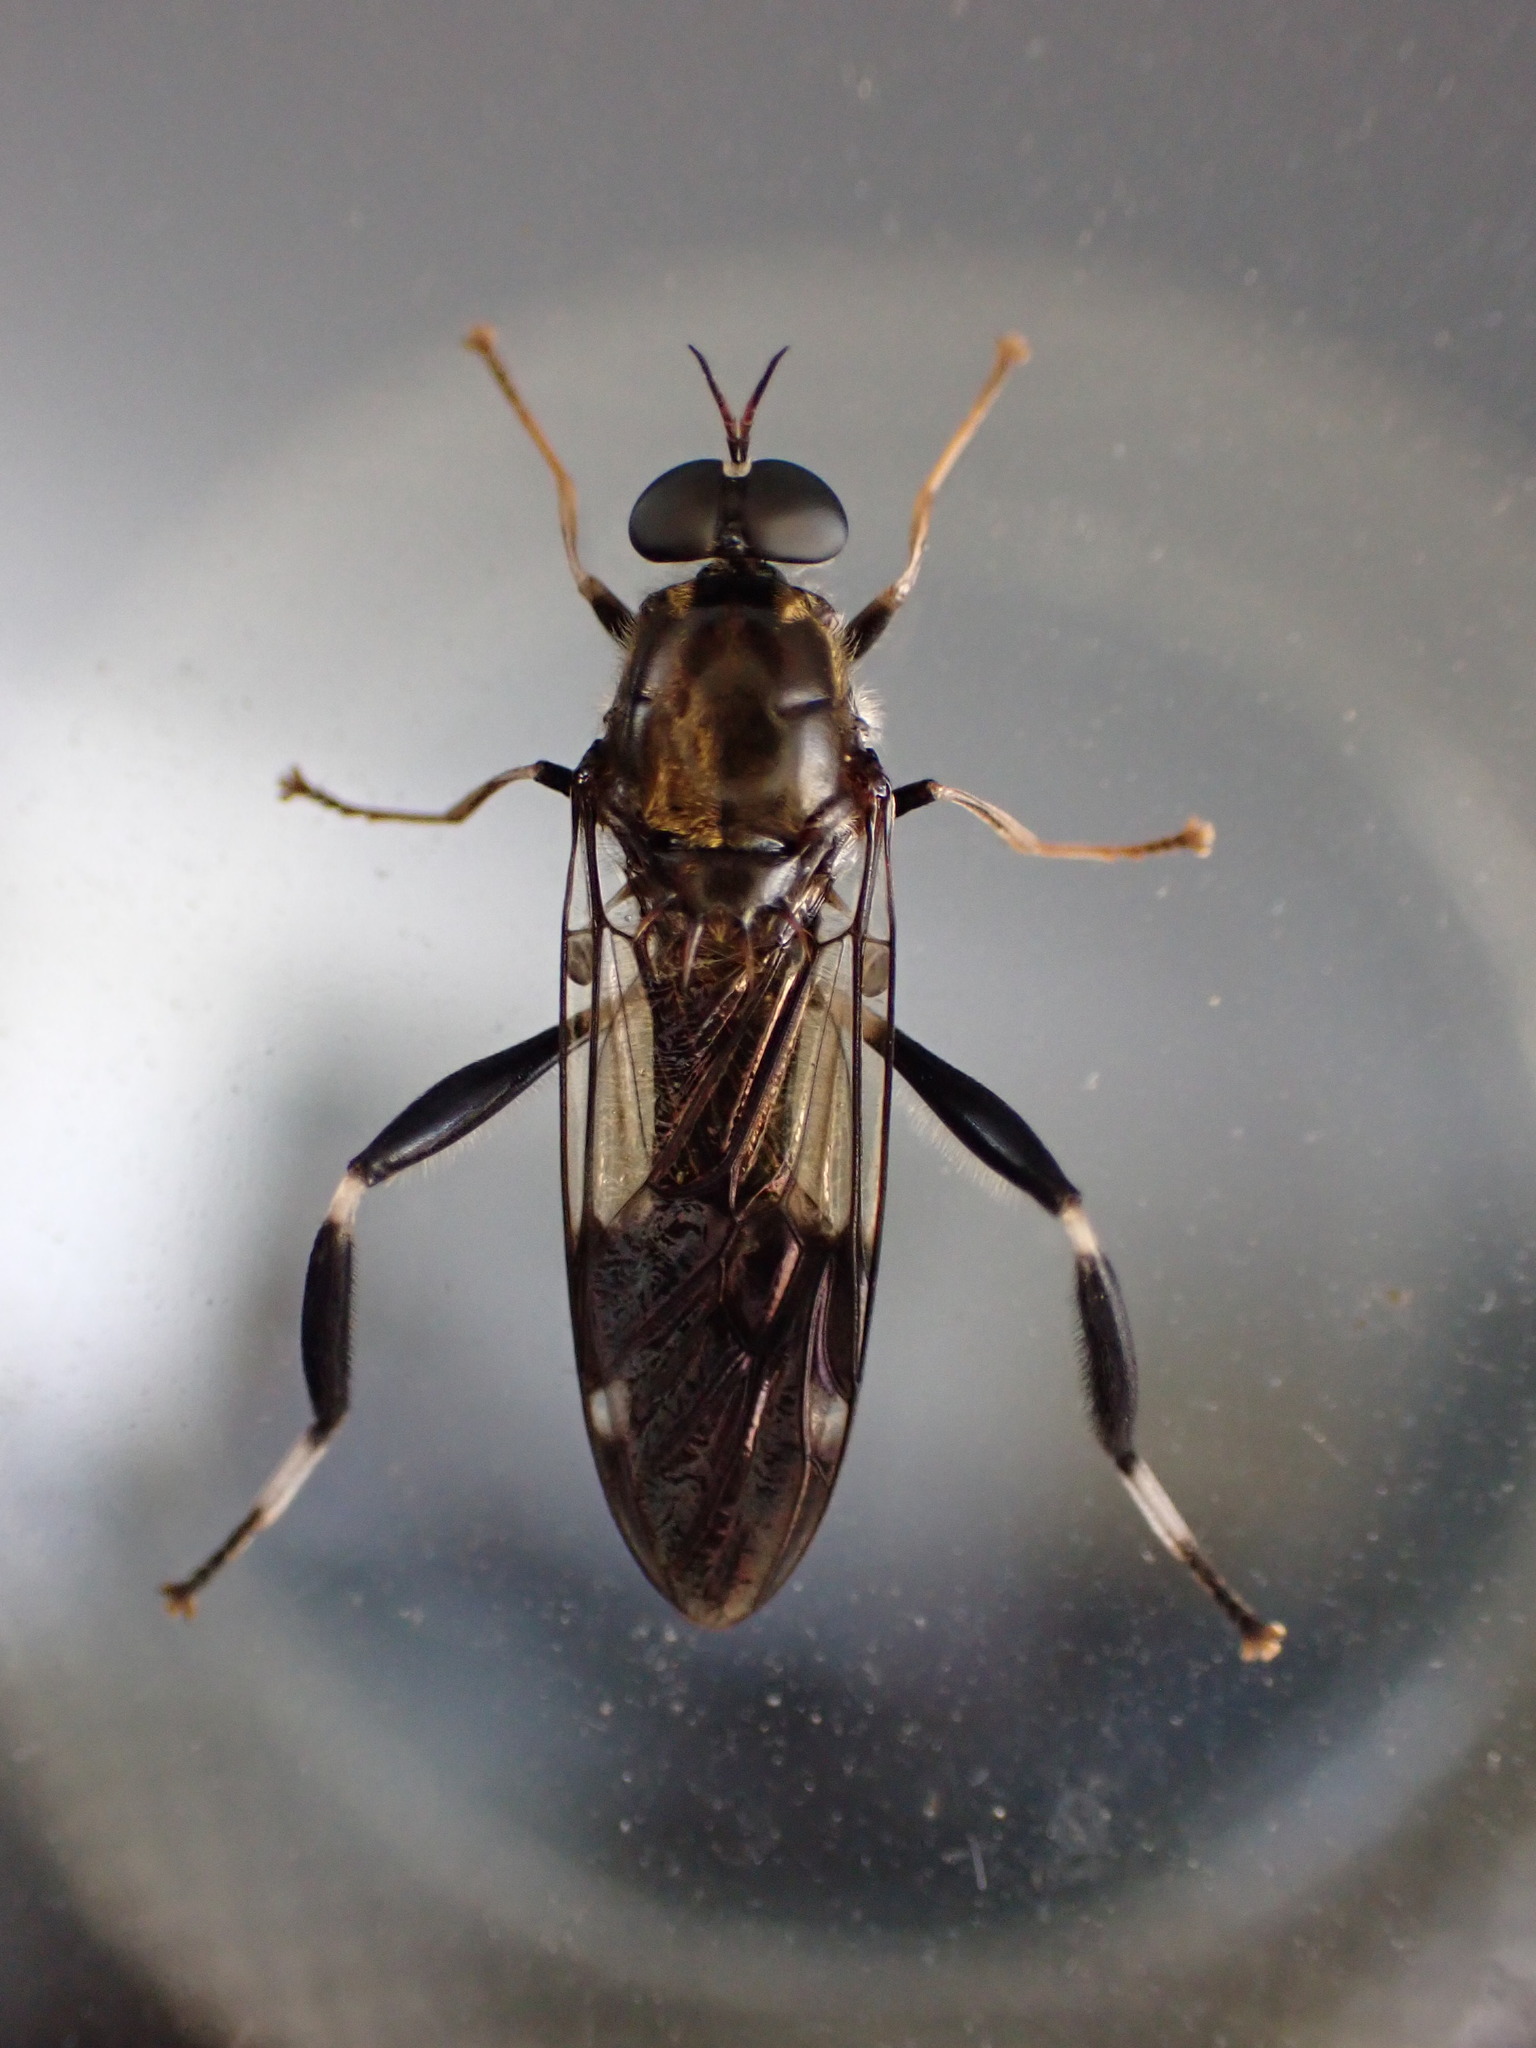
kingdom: Animalia
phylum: Arthropoda
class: Insecta
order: Diptera
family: Stratiomyidae
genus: Exaireta
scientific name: Exaireta spinigera
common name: Blue soldier fly
